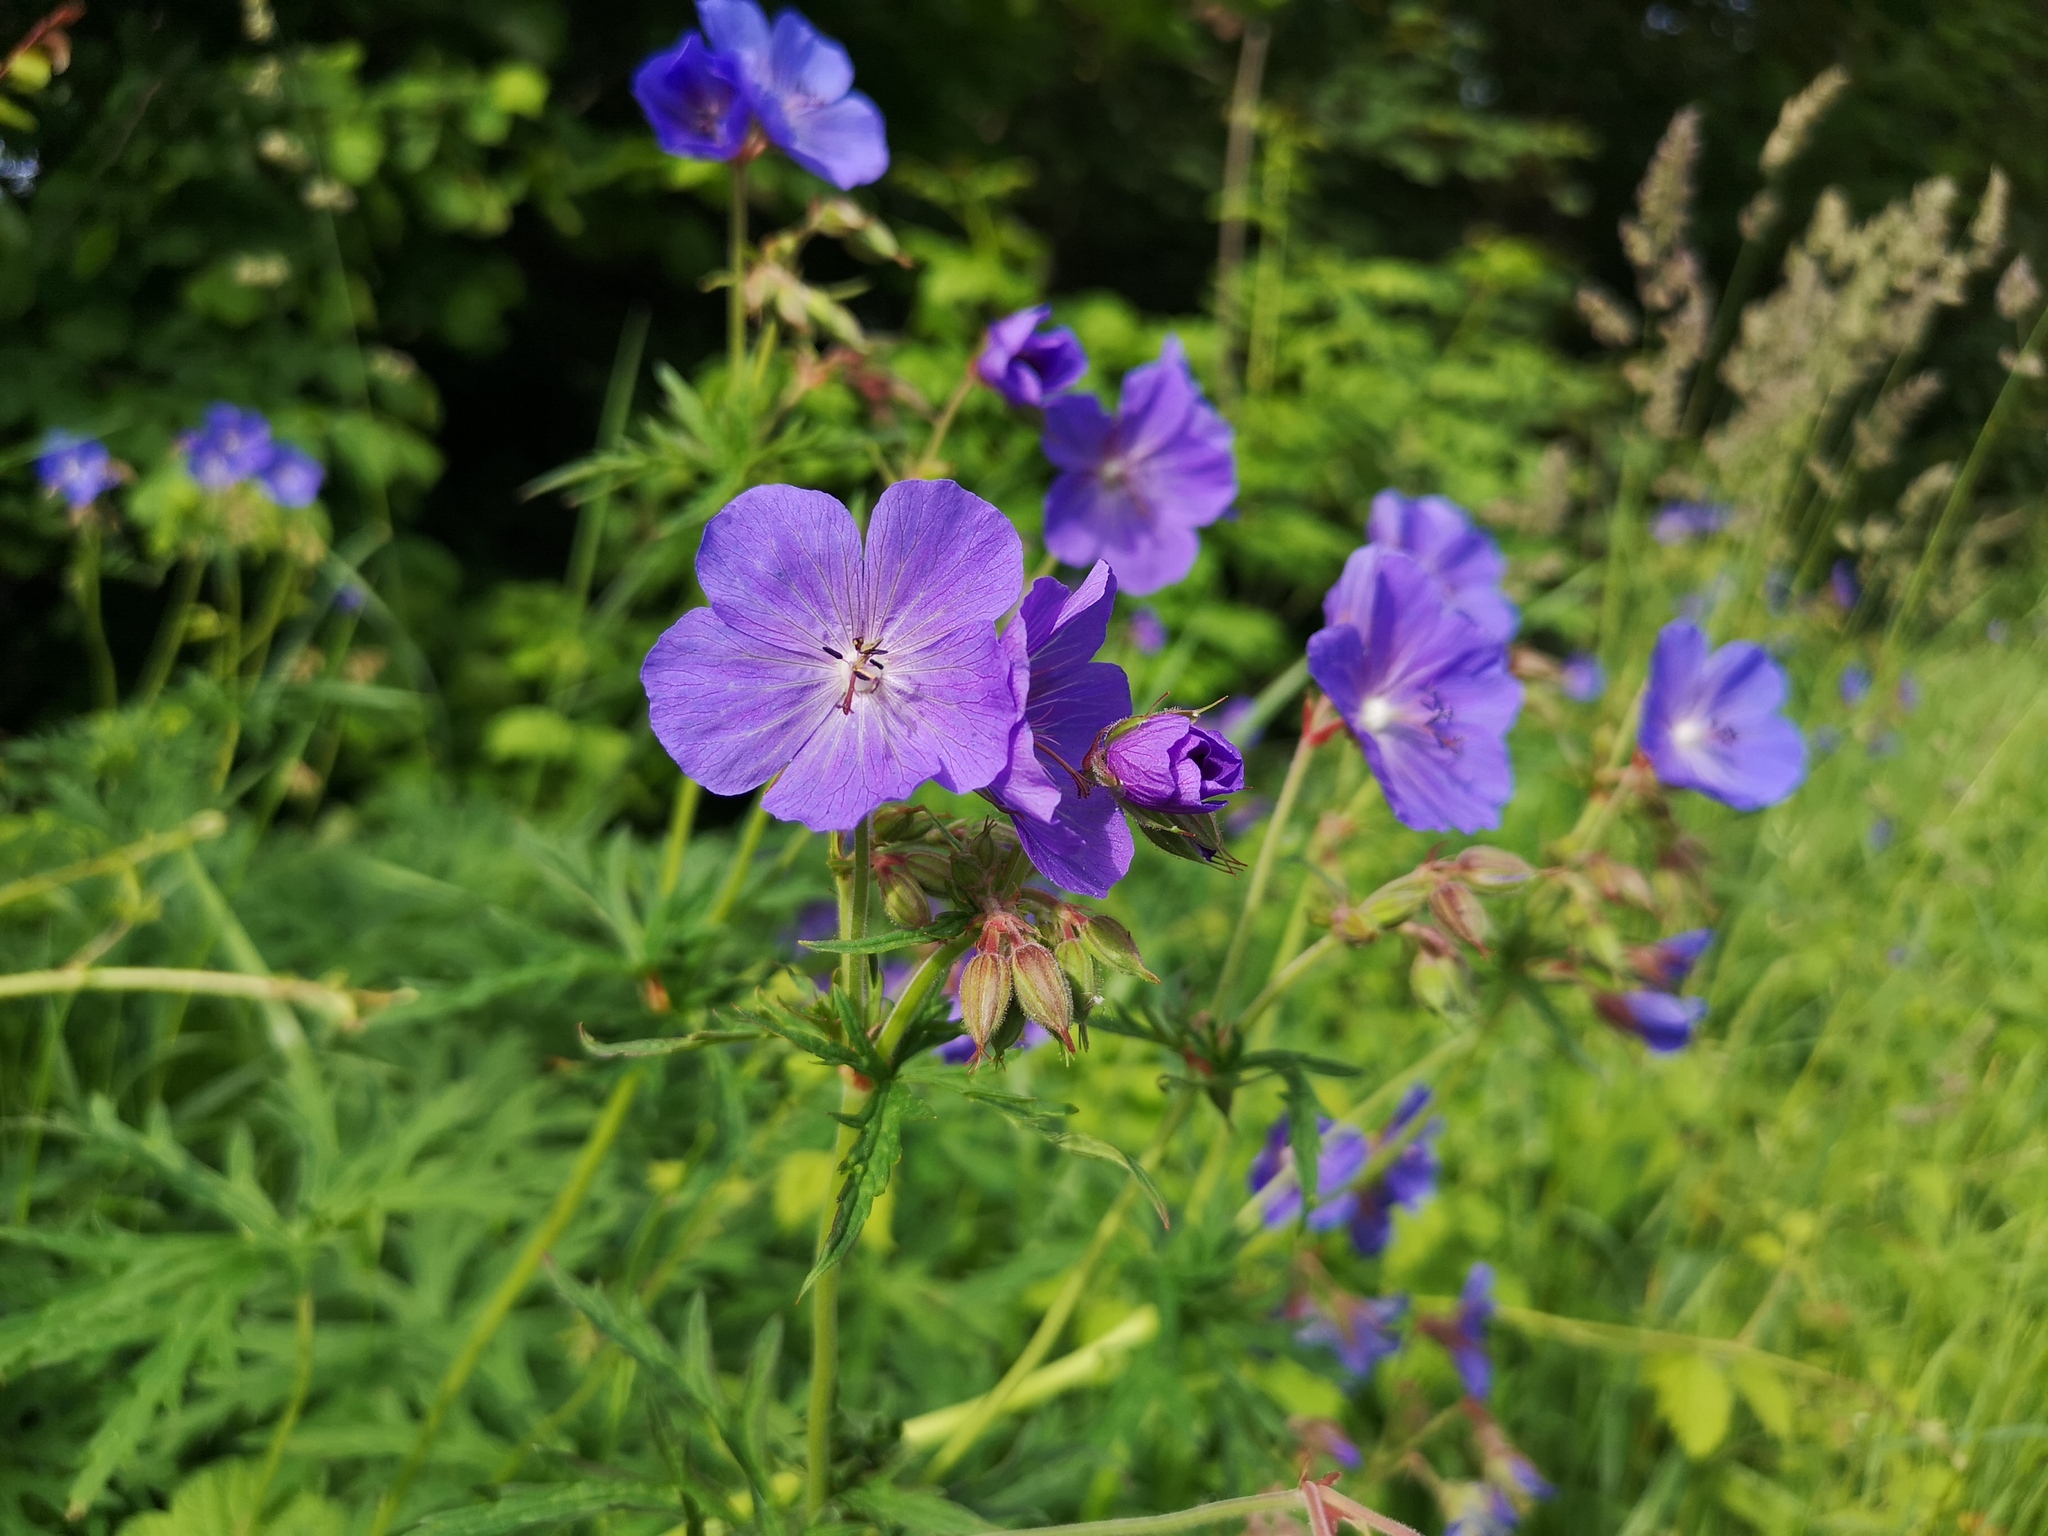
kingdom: Plantae
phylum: Tracheophyta
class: Magnoliopsida
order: Geraniales
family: Geraniaceae
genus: Geranium
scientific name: Geranium pratense
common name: Meadow crane's-bill
